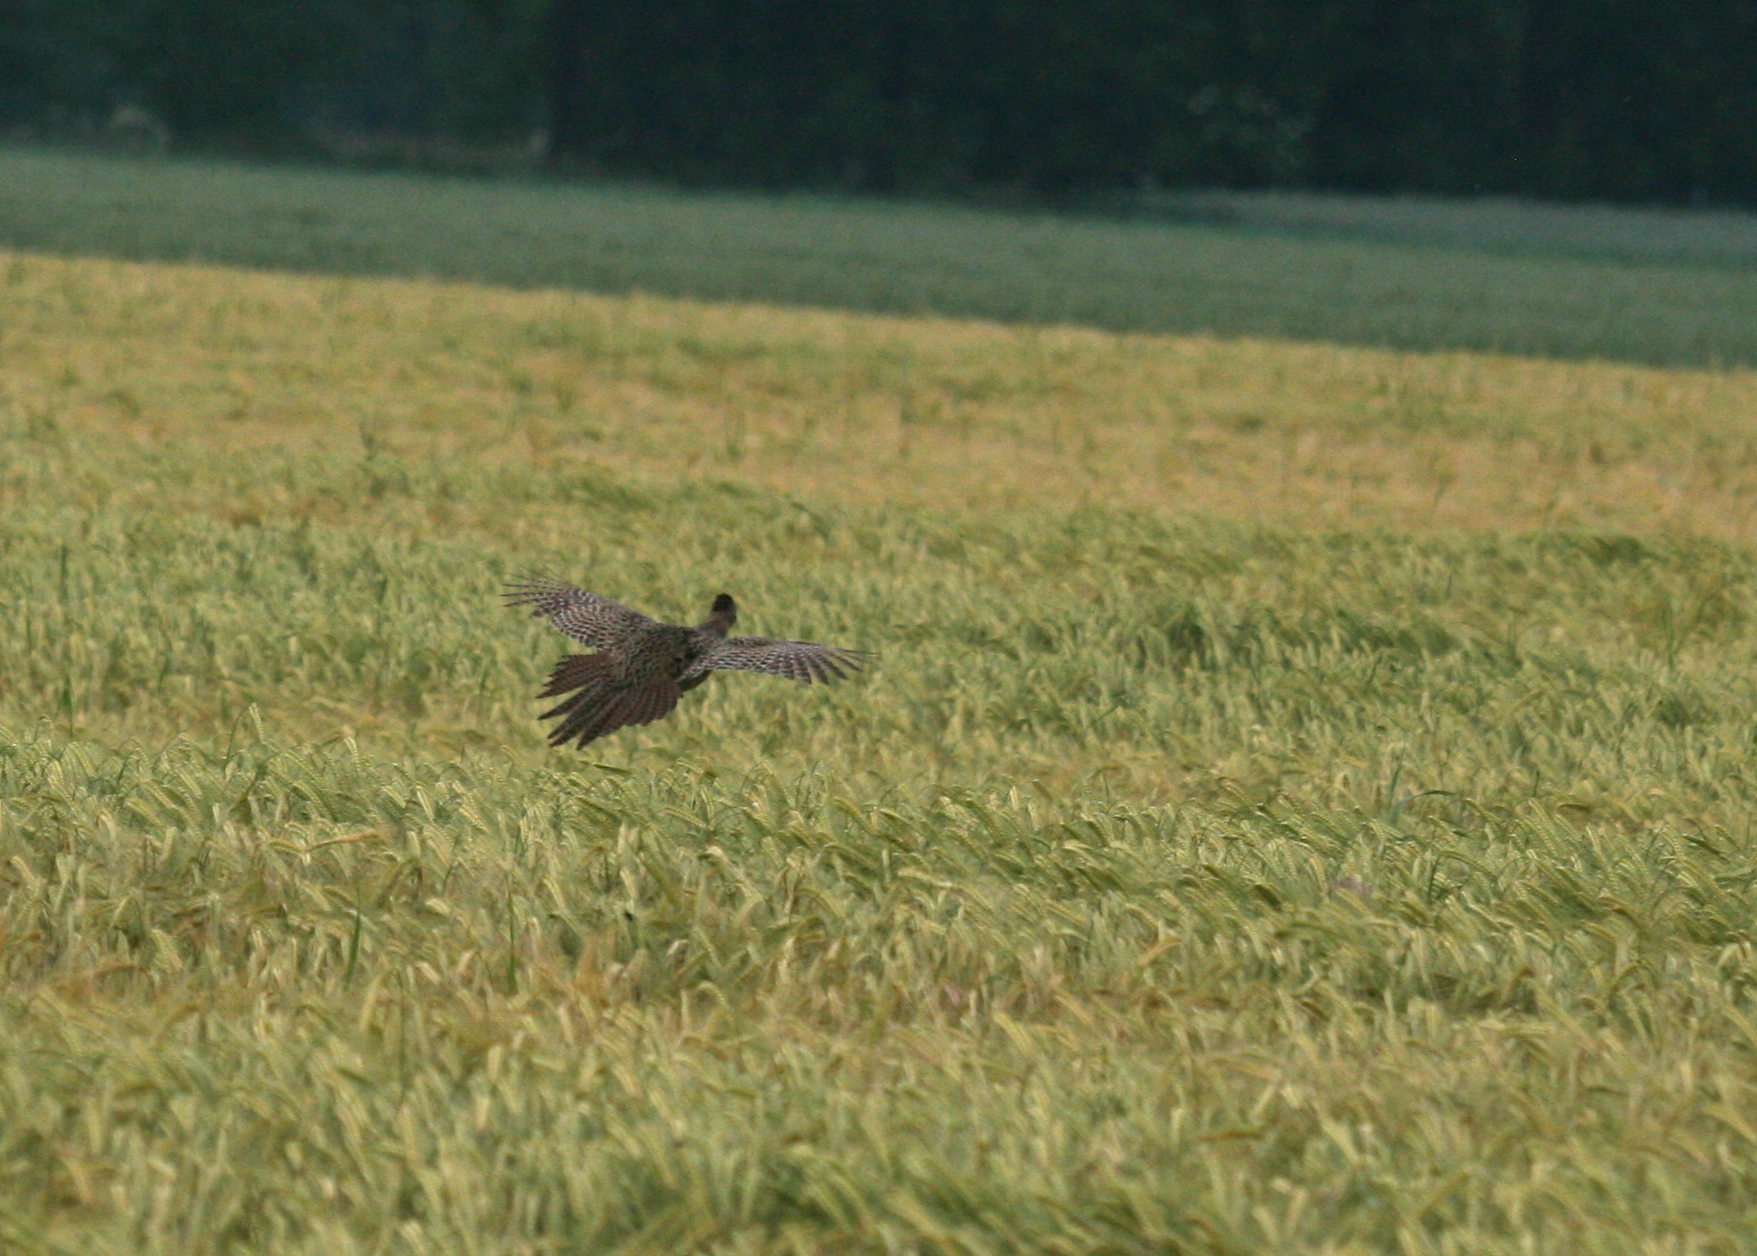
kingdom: Animalia
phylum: Chordata
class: Aves
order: Galliformes
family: Phasianidae
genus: Phasianus
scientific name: Phasianus colchicus
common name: Common pheasant
